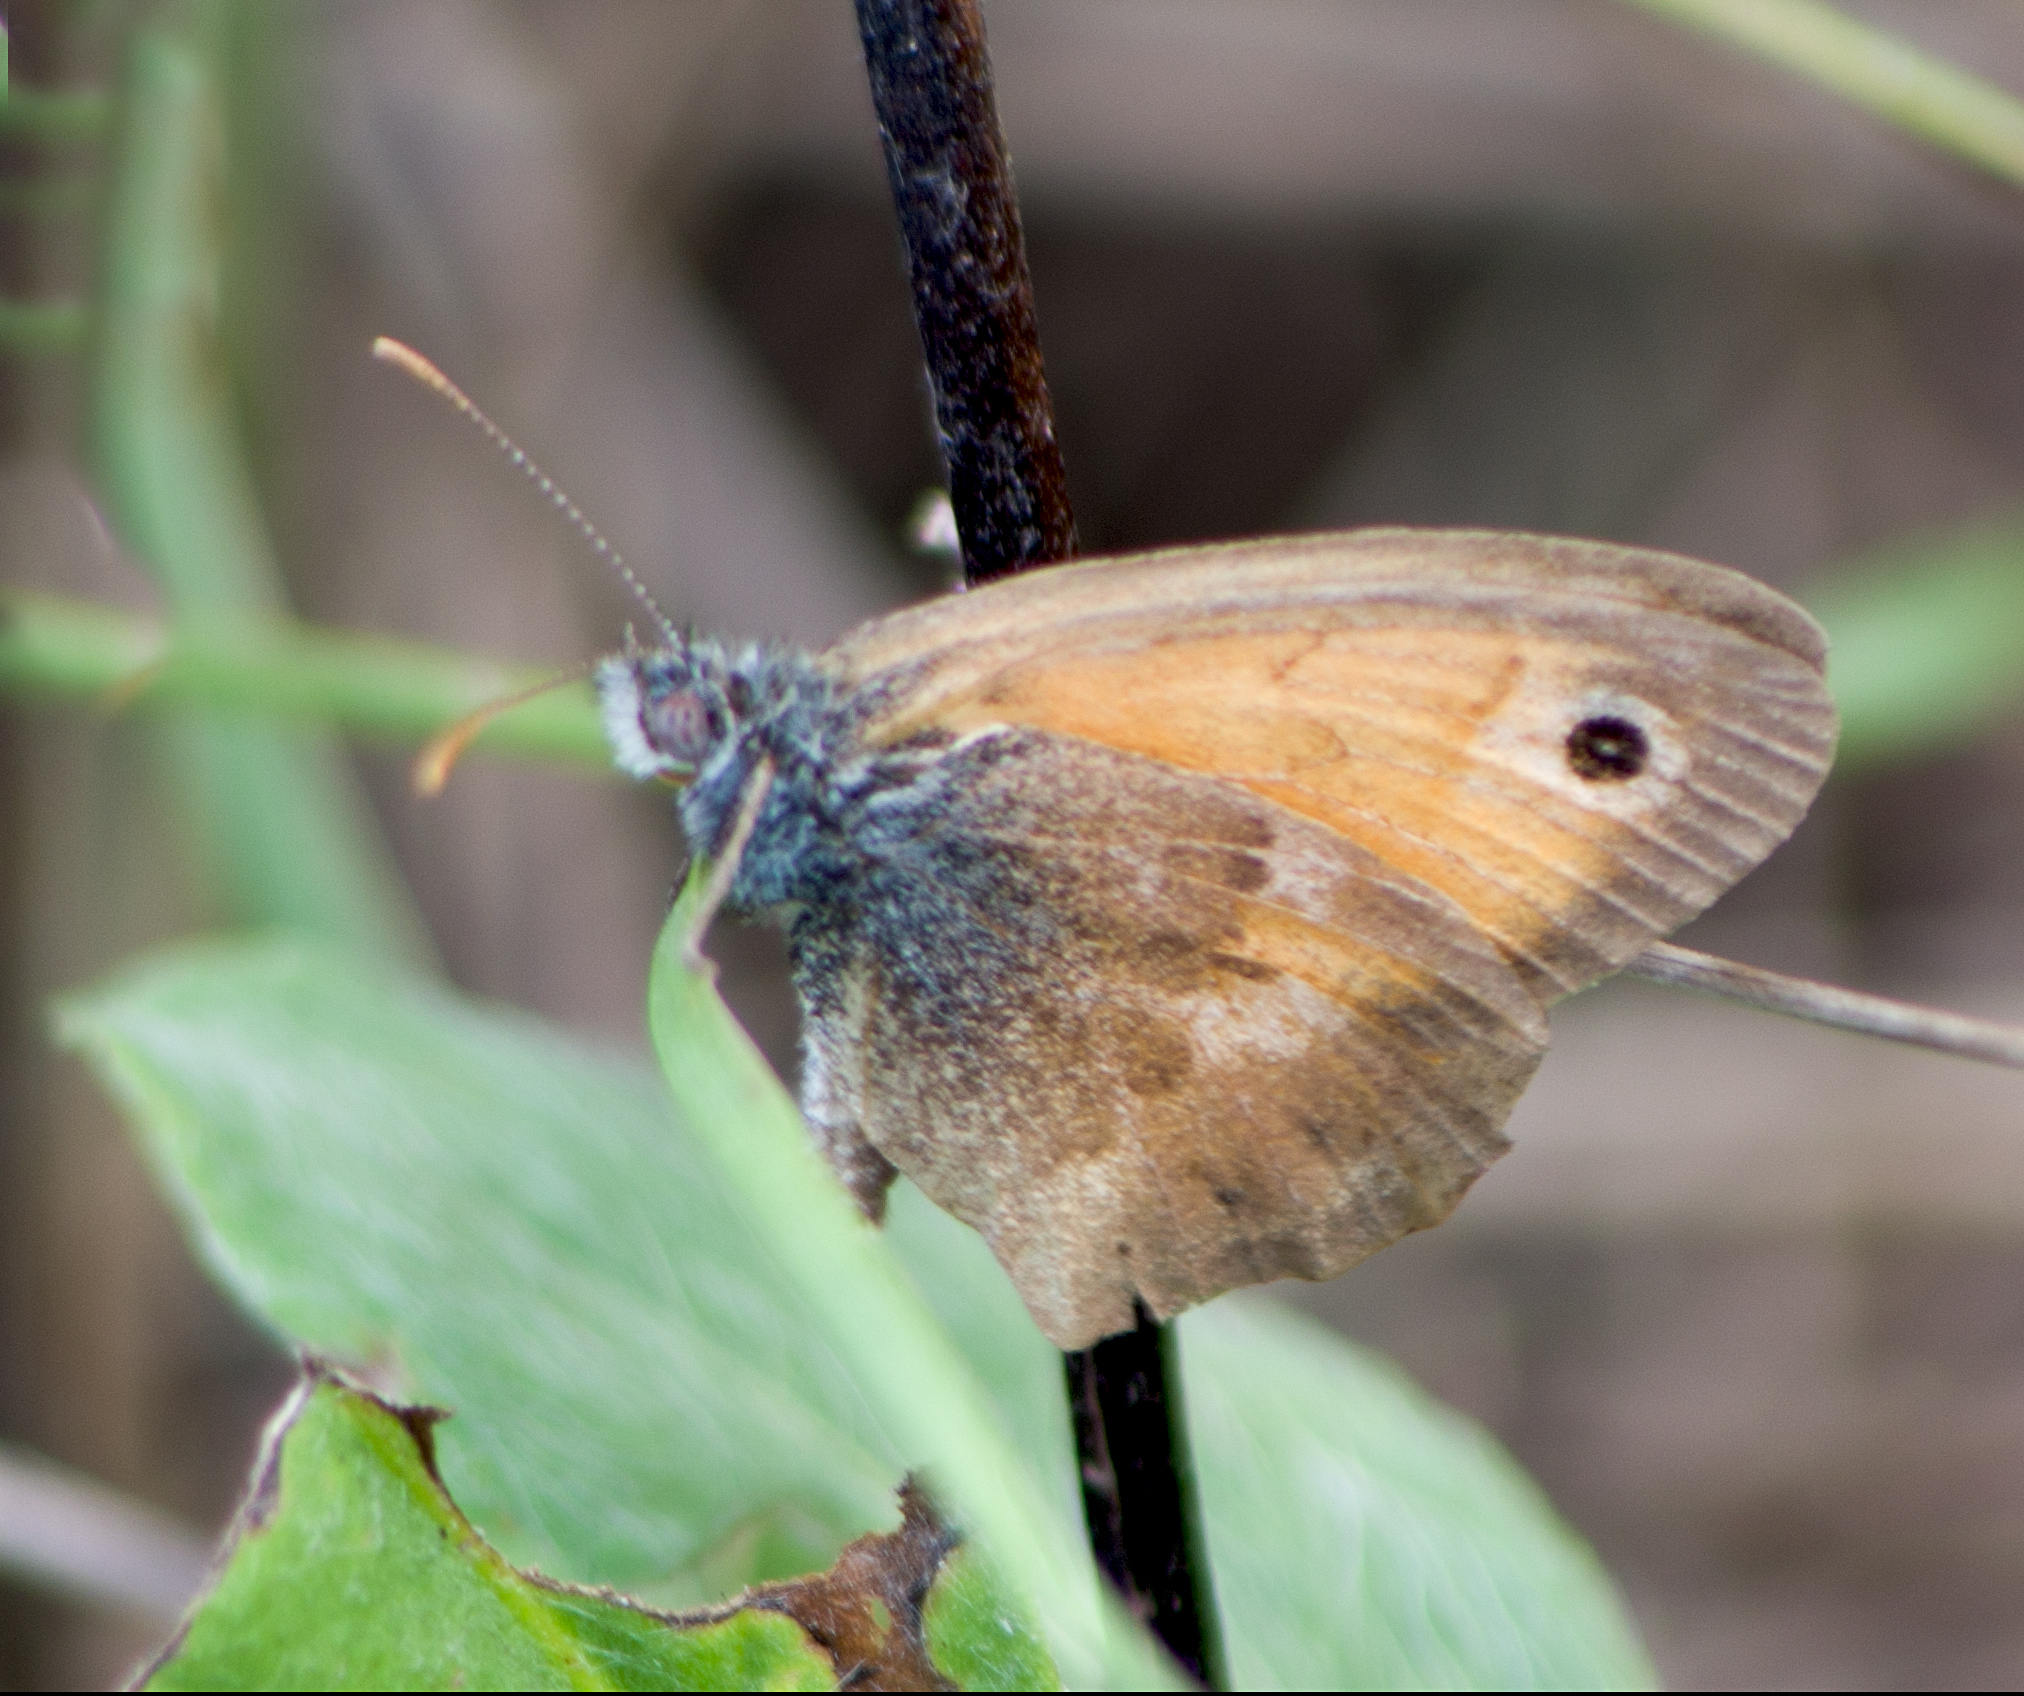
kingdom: Animalia
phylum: Arthropoda
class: Insecta
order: Lepidoptera
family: Nymphalidae
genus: Coenonympha
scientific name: Coenonympha pamphilus
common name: Small heath
